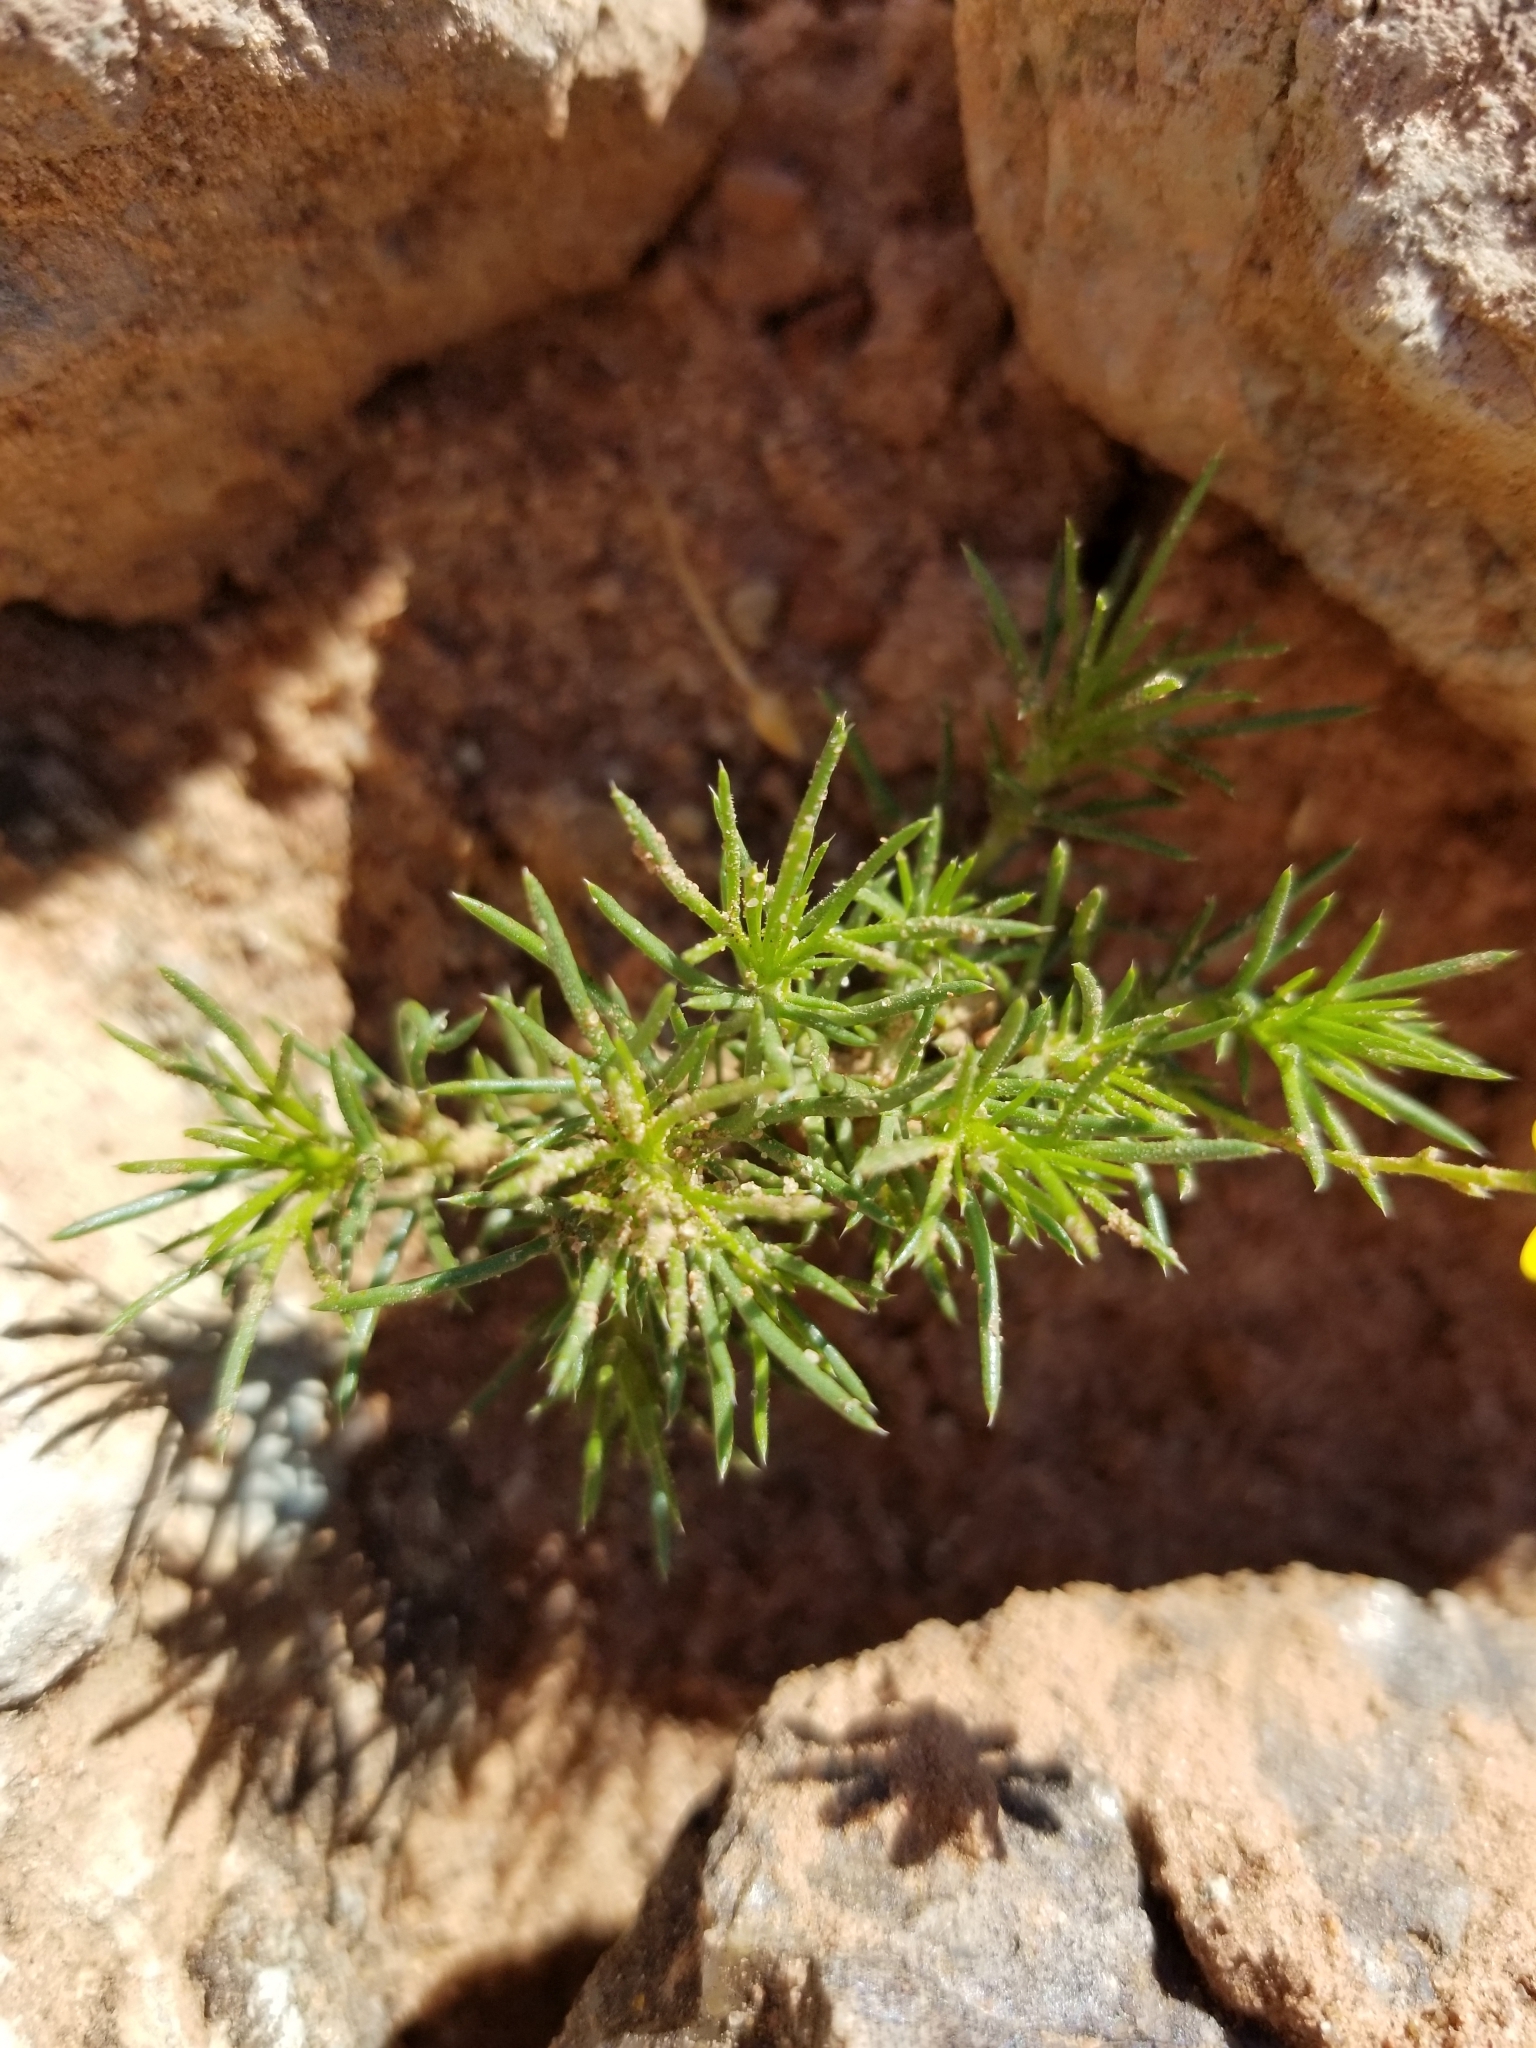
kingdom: Plantae
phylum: Tracheophyta
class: Magnoliopsida
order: Asterales
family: Asteraceae
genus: Thymophylla
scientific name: Thymophylla pentachaeta
